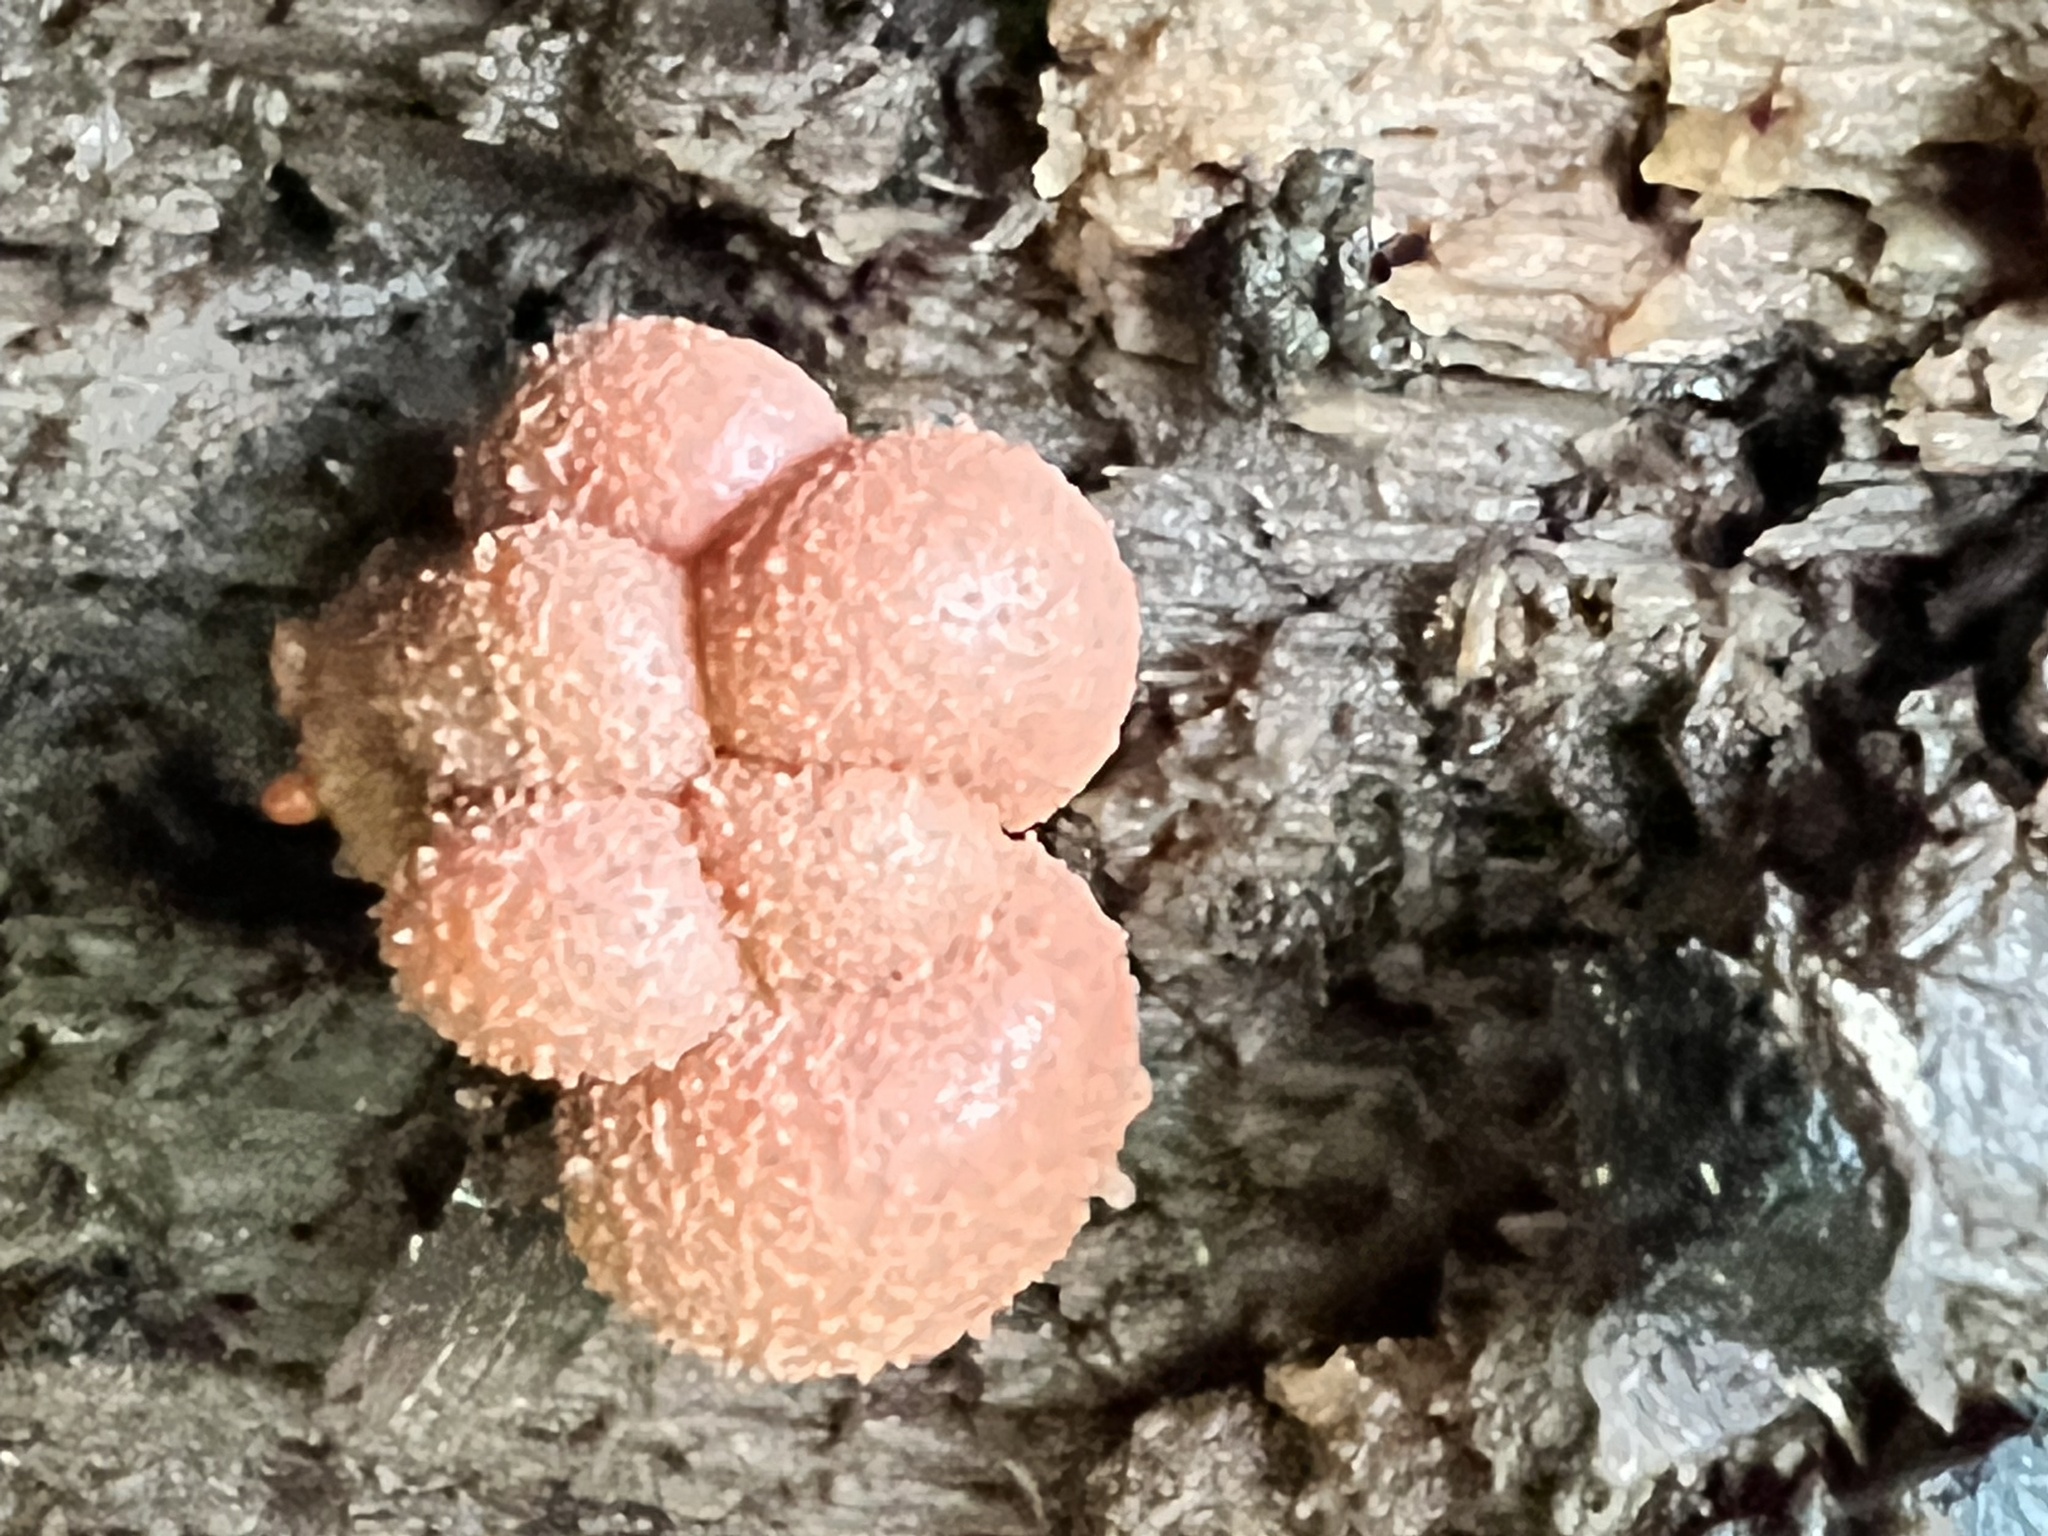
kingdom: Protozoa
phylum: Mycetozoa
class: Myxomycetes
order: Cribrariales
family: Tubiferaceae
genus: Lycogala
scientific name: Lycogala epidendrum
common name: Wolf's milk
